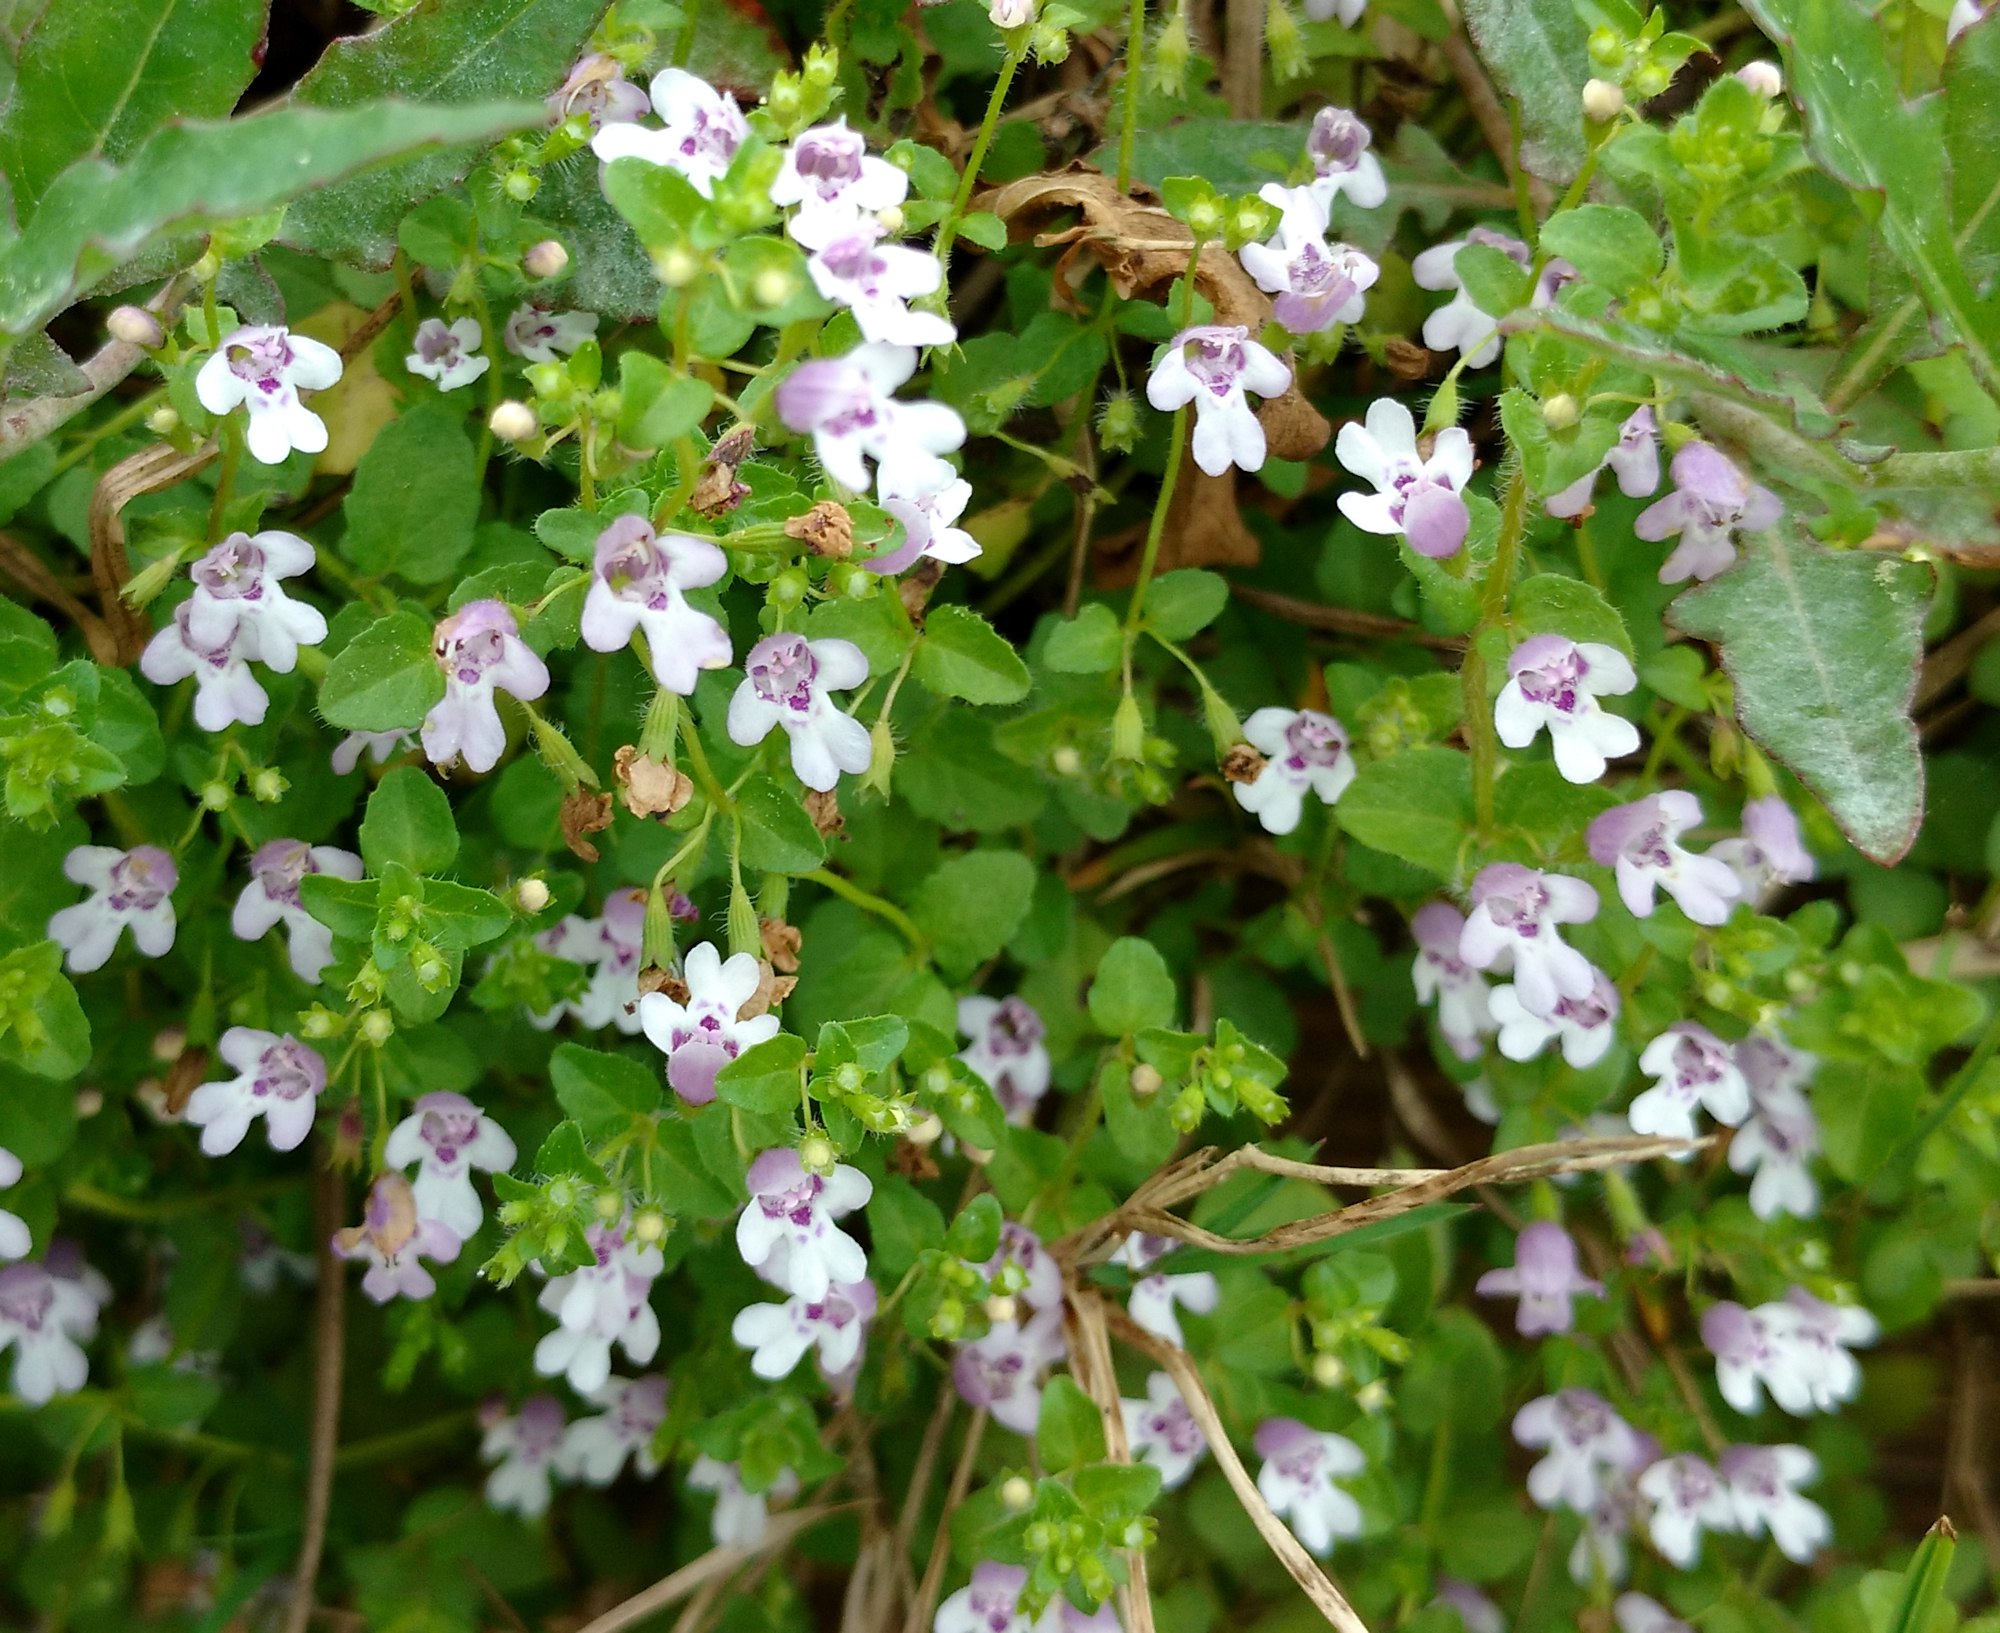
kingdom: Plantae
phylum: Tracheophyta
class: Magnoliopsida
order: Lamiales
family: Lamiaceae
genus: Clinopodium
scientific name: Clinopodium brownei
